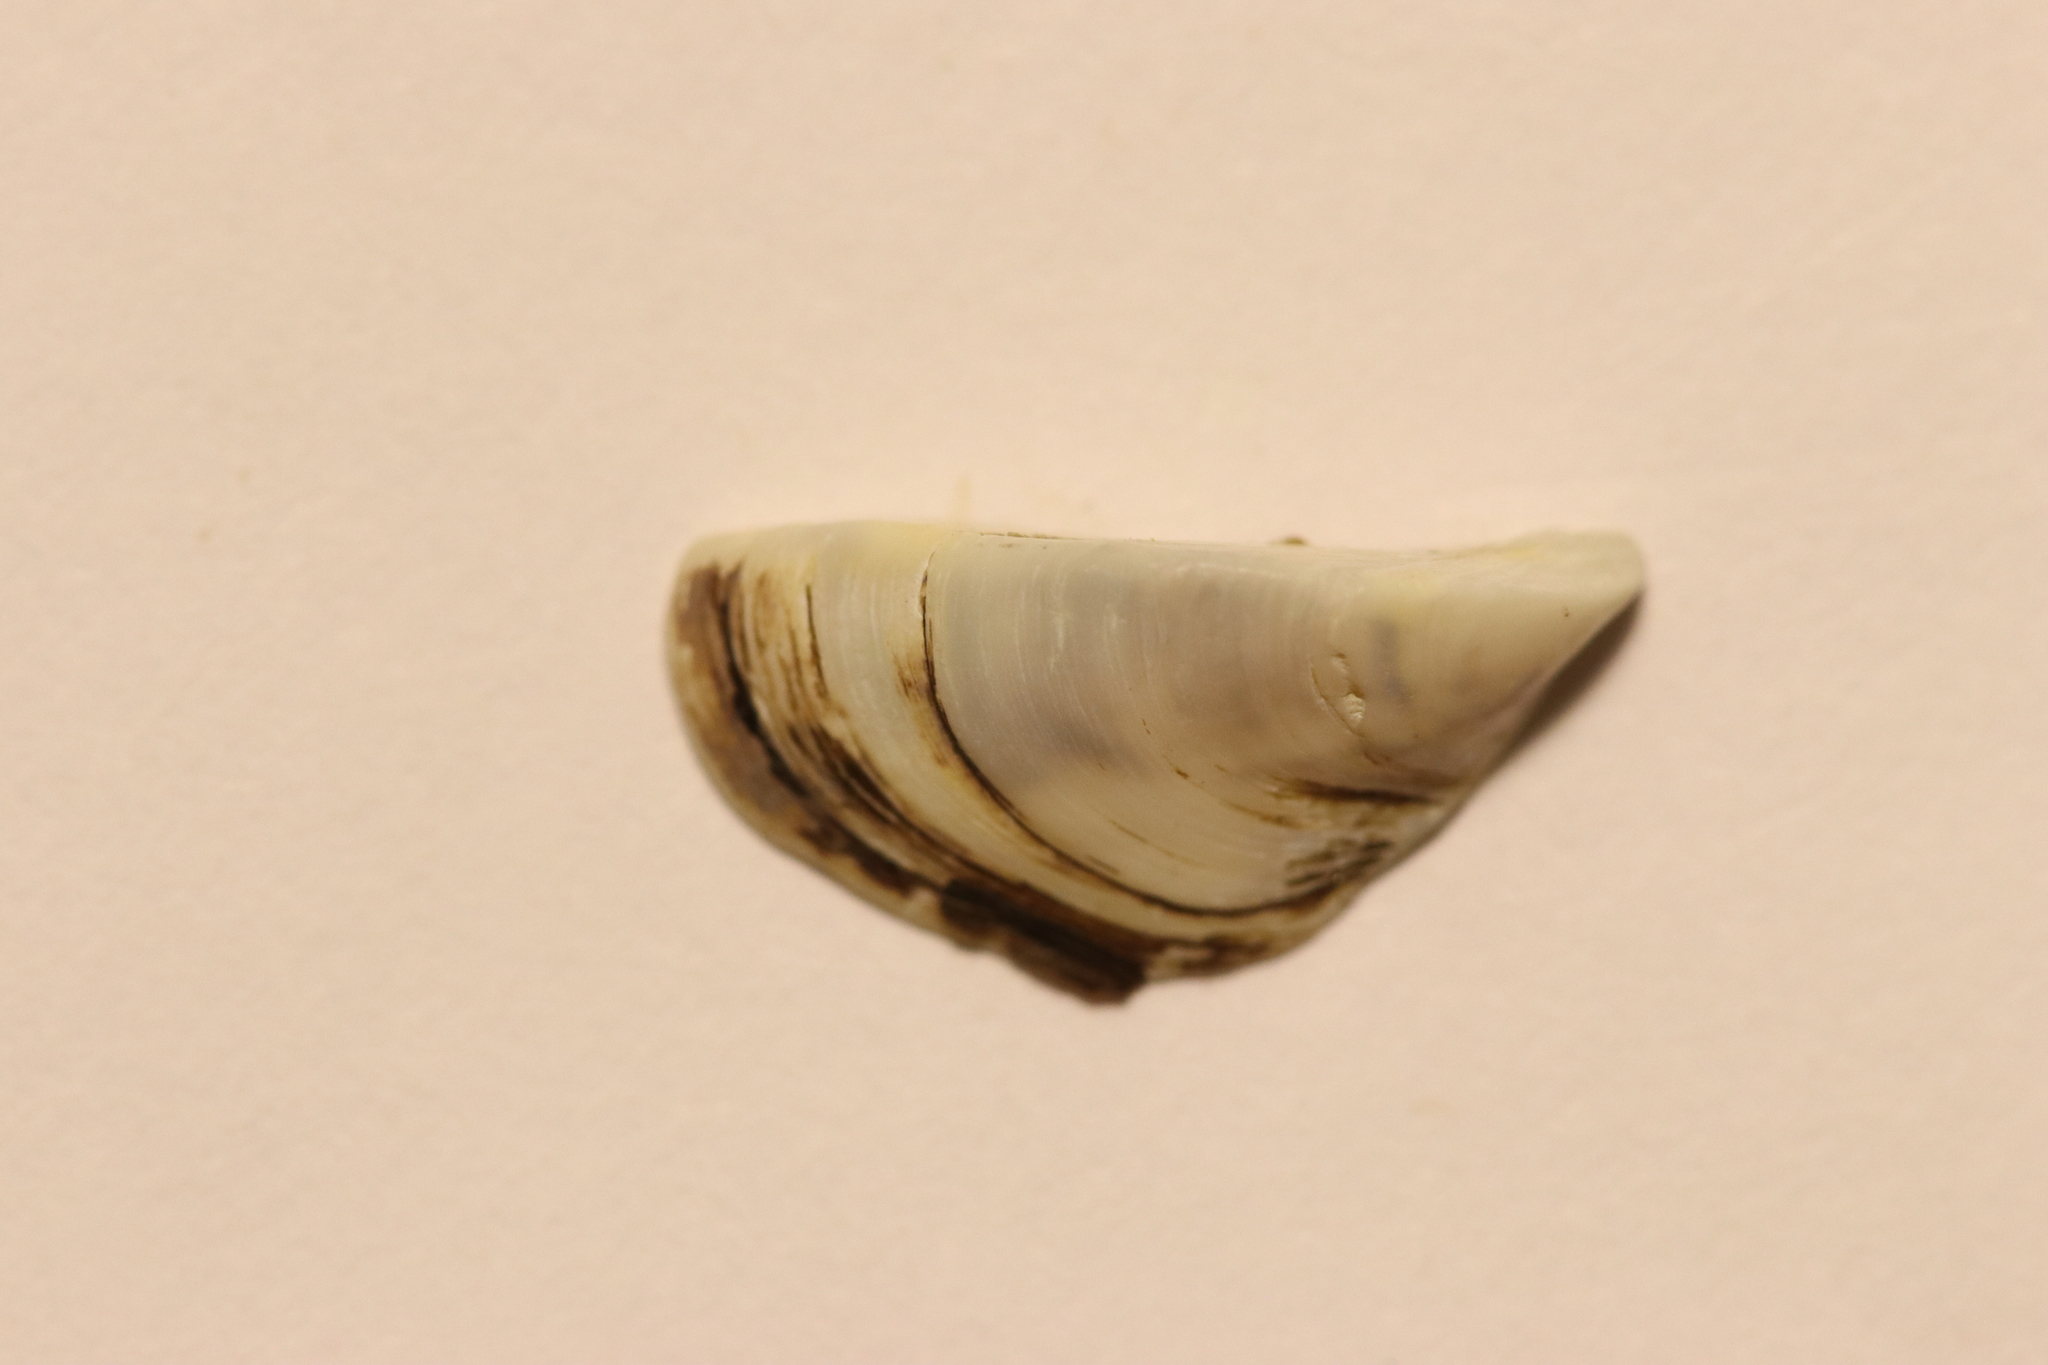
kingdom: Animalia
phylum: Mollusca
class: Bivalvia
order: Myida
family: Dreissenidae
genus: Dreissena
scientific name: Dreissena polymorpha
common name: Zebra mussel
